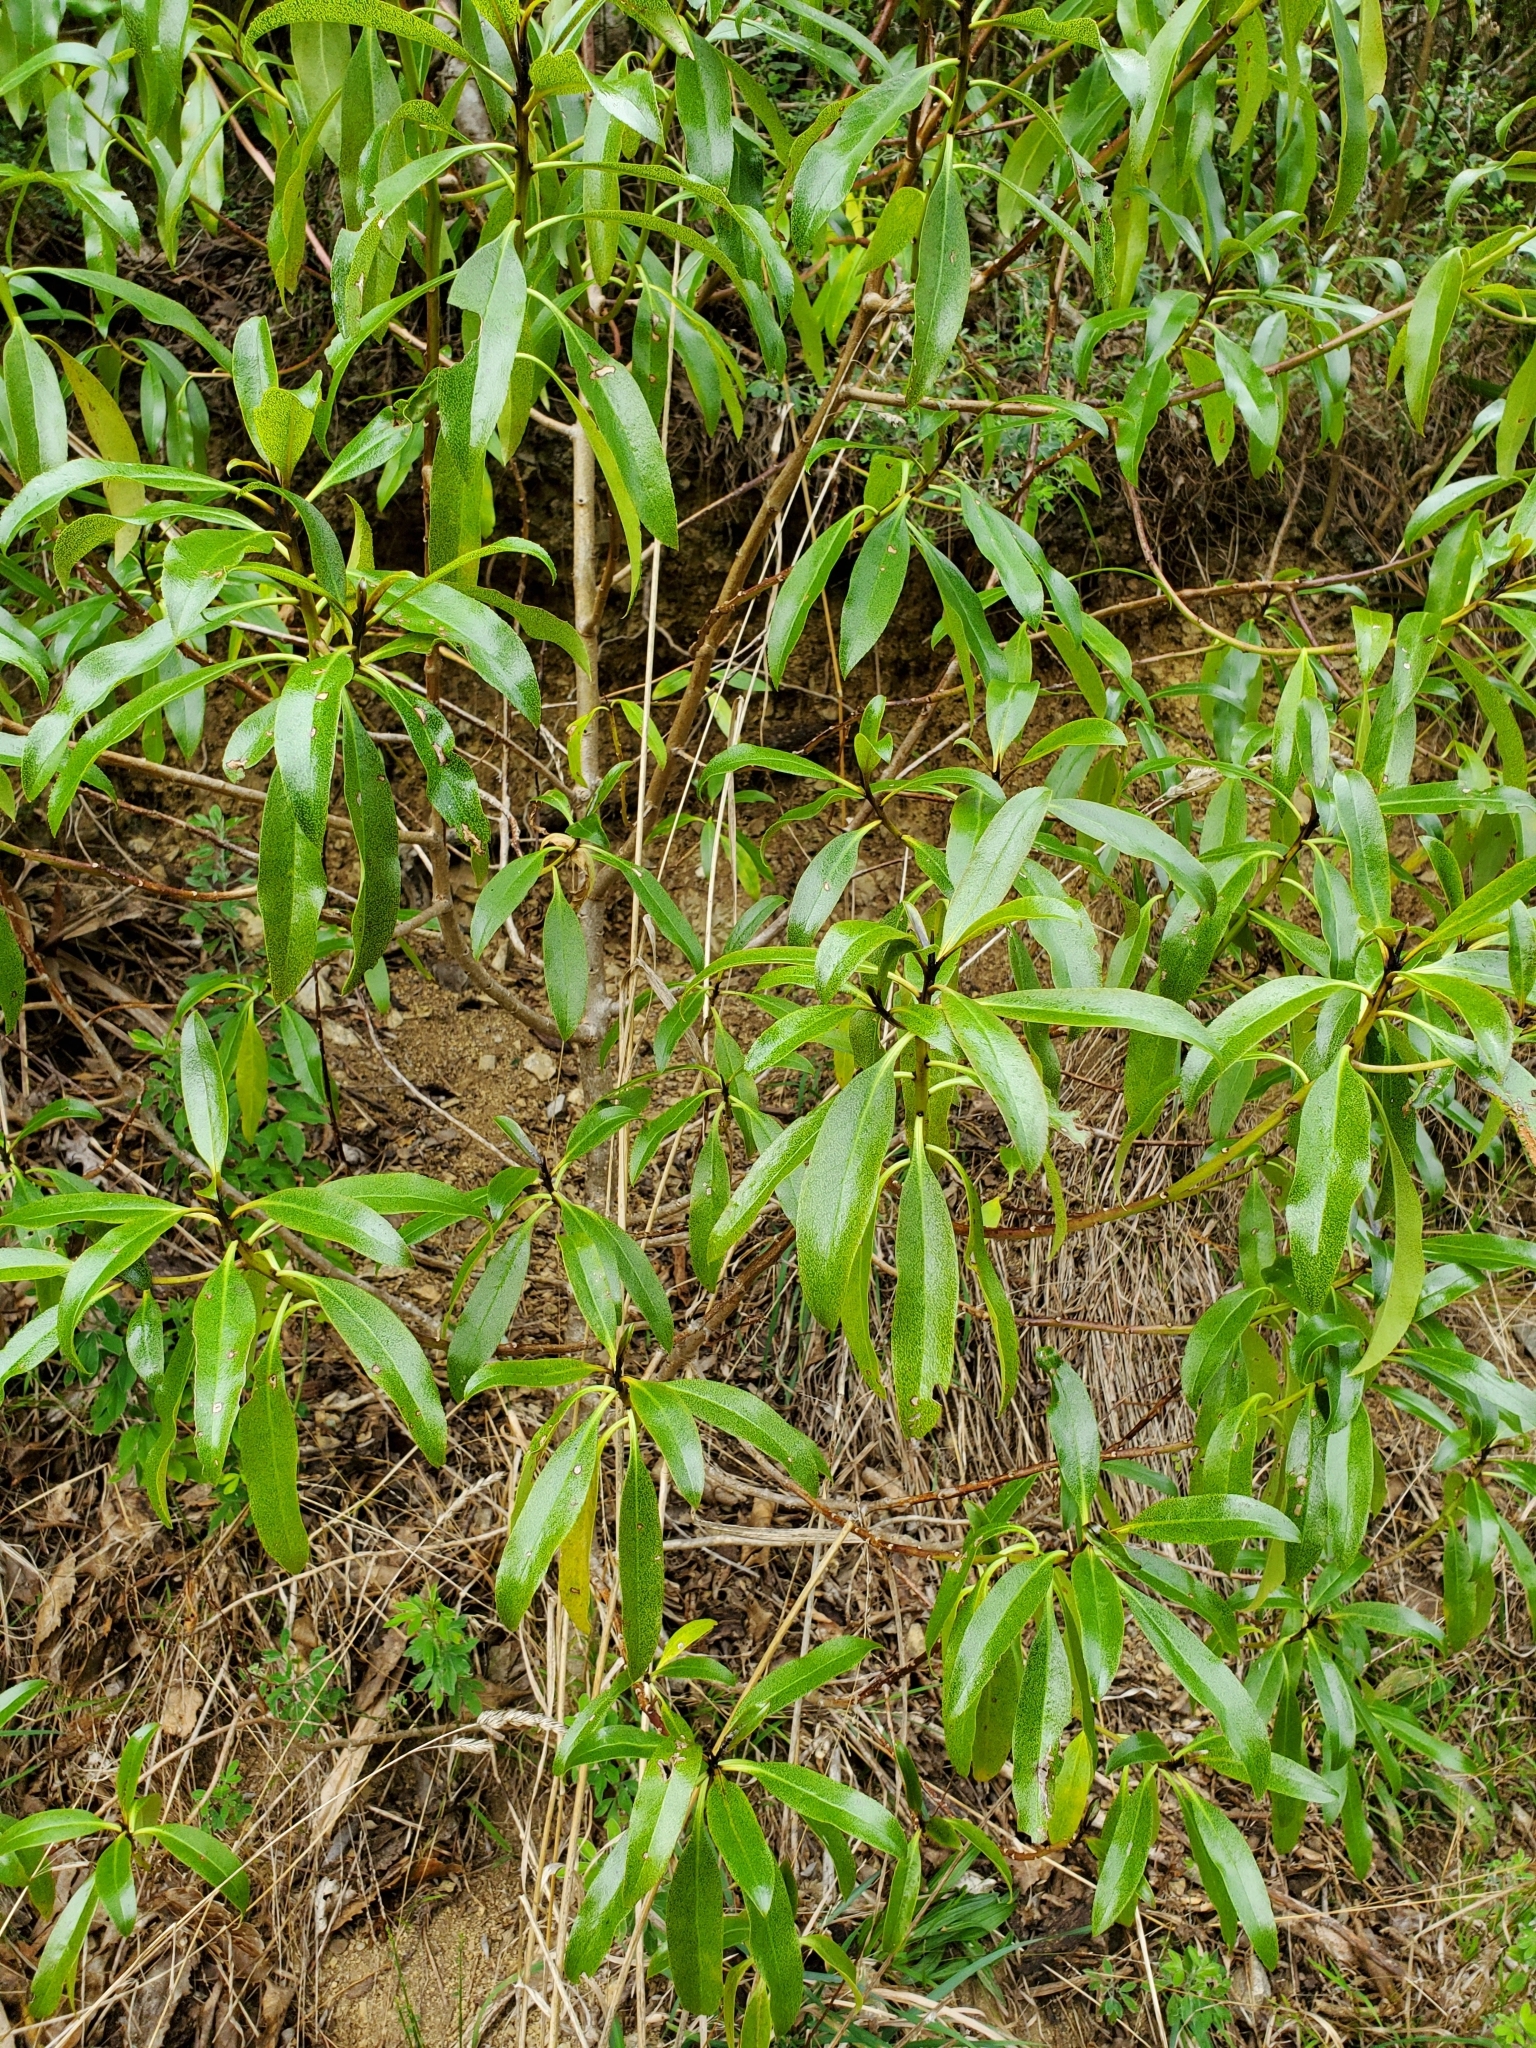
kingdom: Plantae
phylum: Tracheophyta
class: Magnoliopsida
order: Lamiales
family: Scrophulariaceae
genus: Myoporum
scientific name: Myoporum laetum
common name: Ngaio tree
